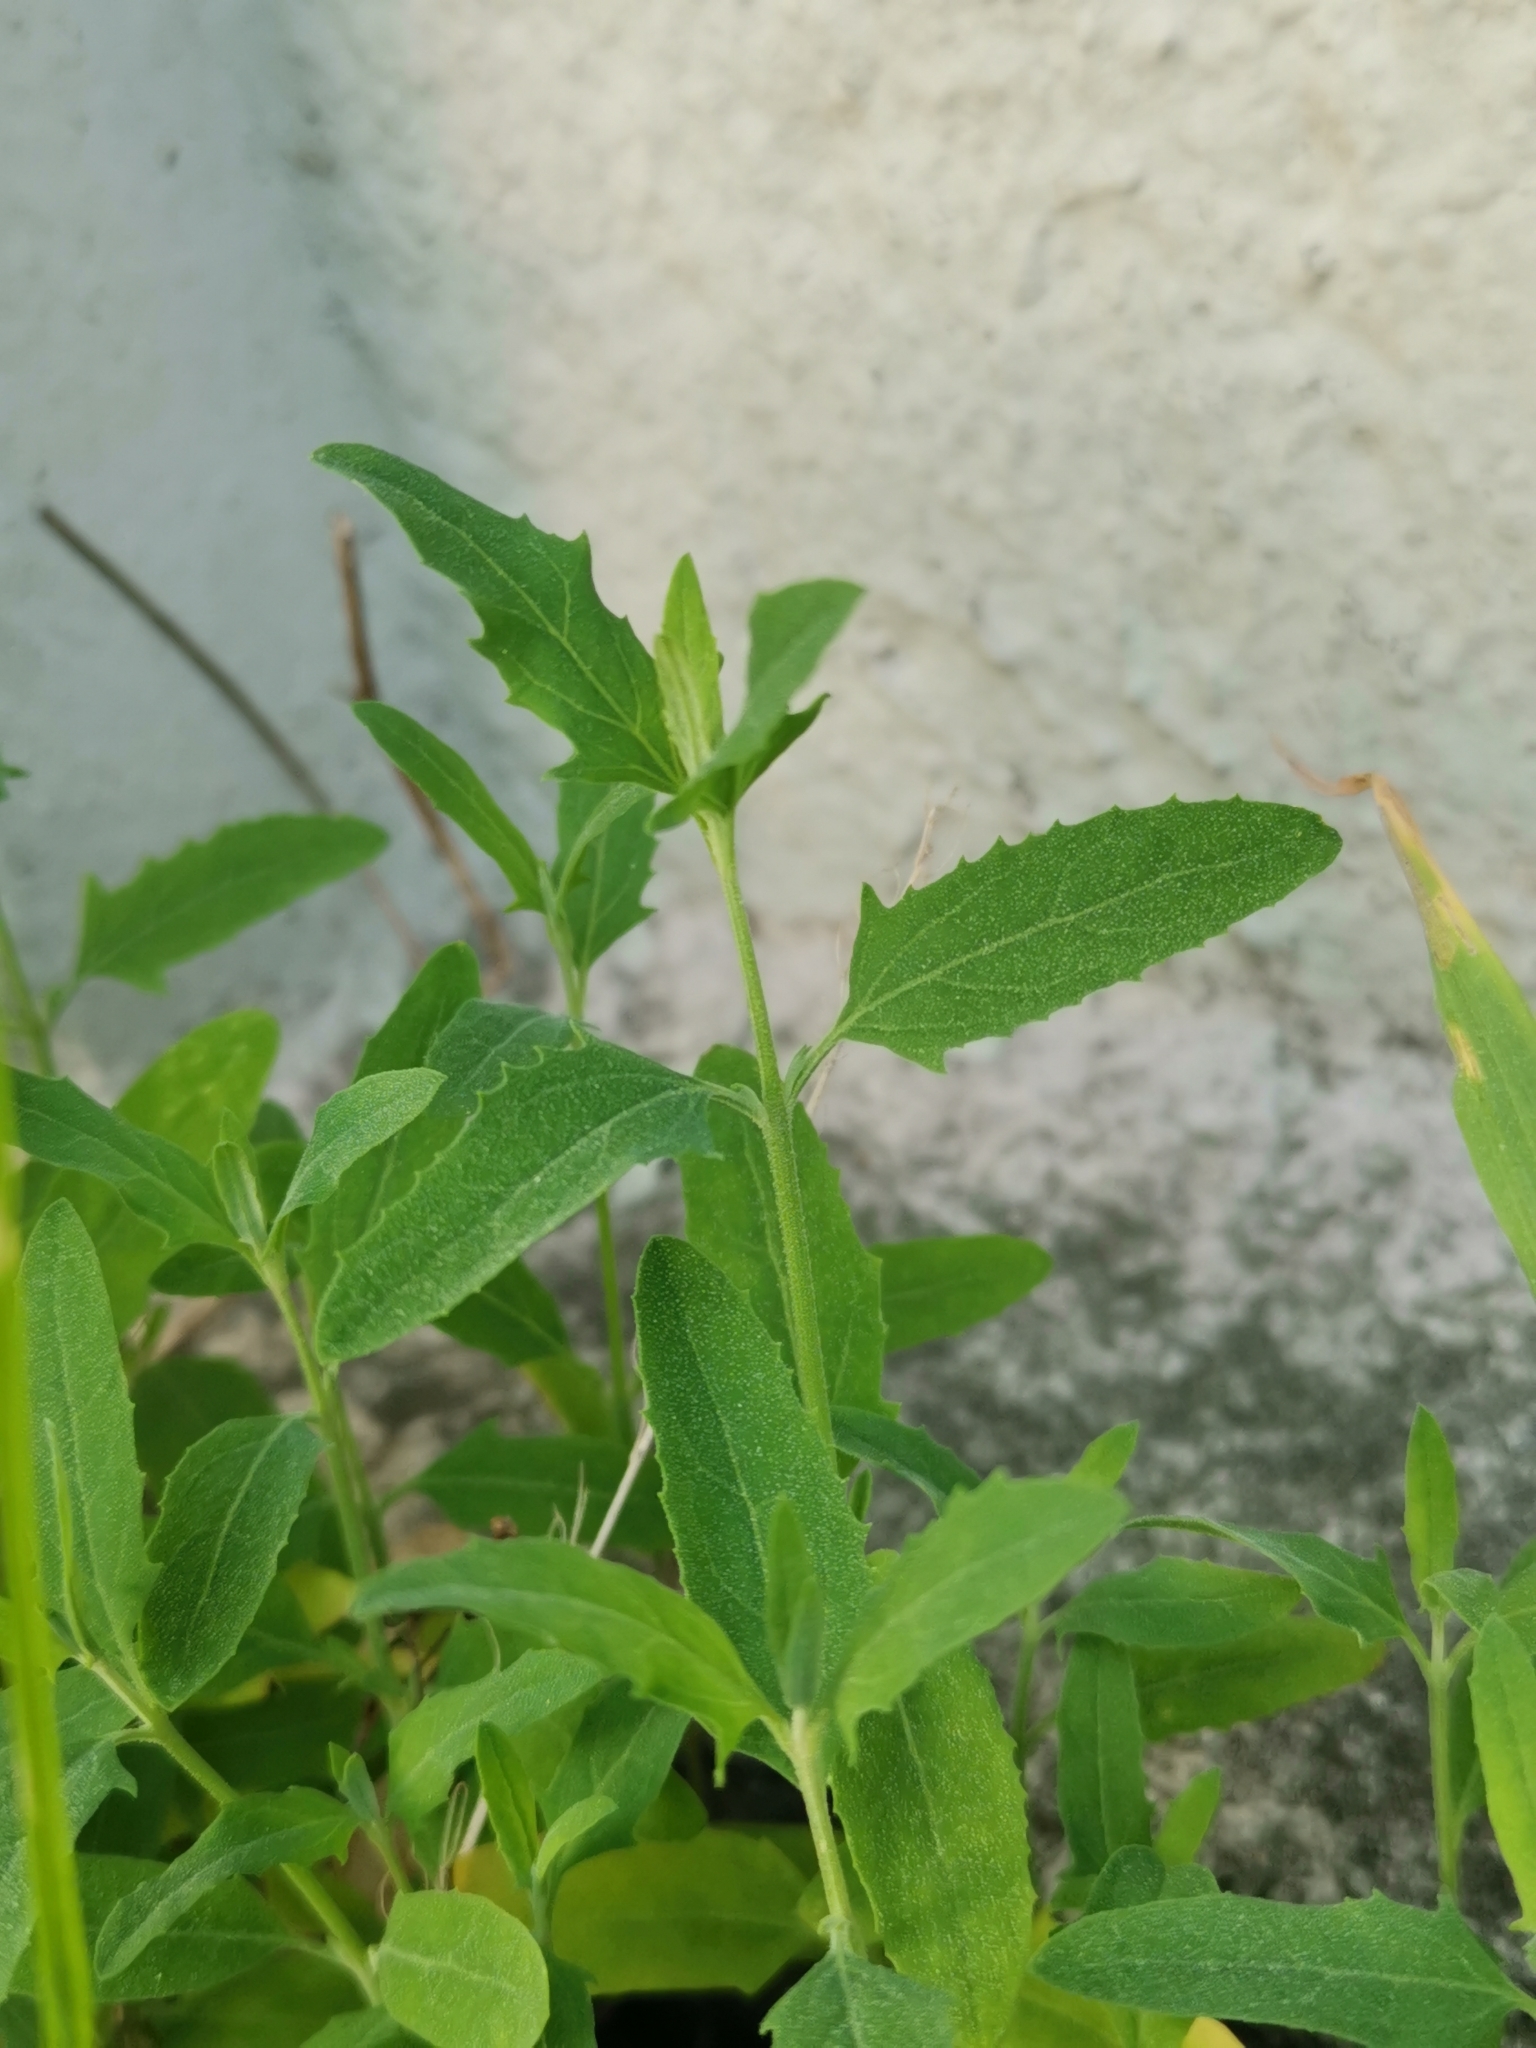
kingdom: Plantae
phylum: Tracheophyta
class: Magnoliopsida
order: Caryophyllales
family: Amaranthaceae
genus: Atriplex
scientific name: Atriplex patula
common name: Common orache
